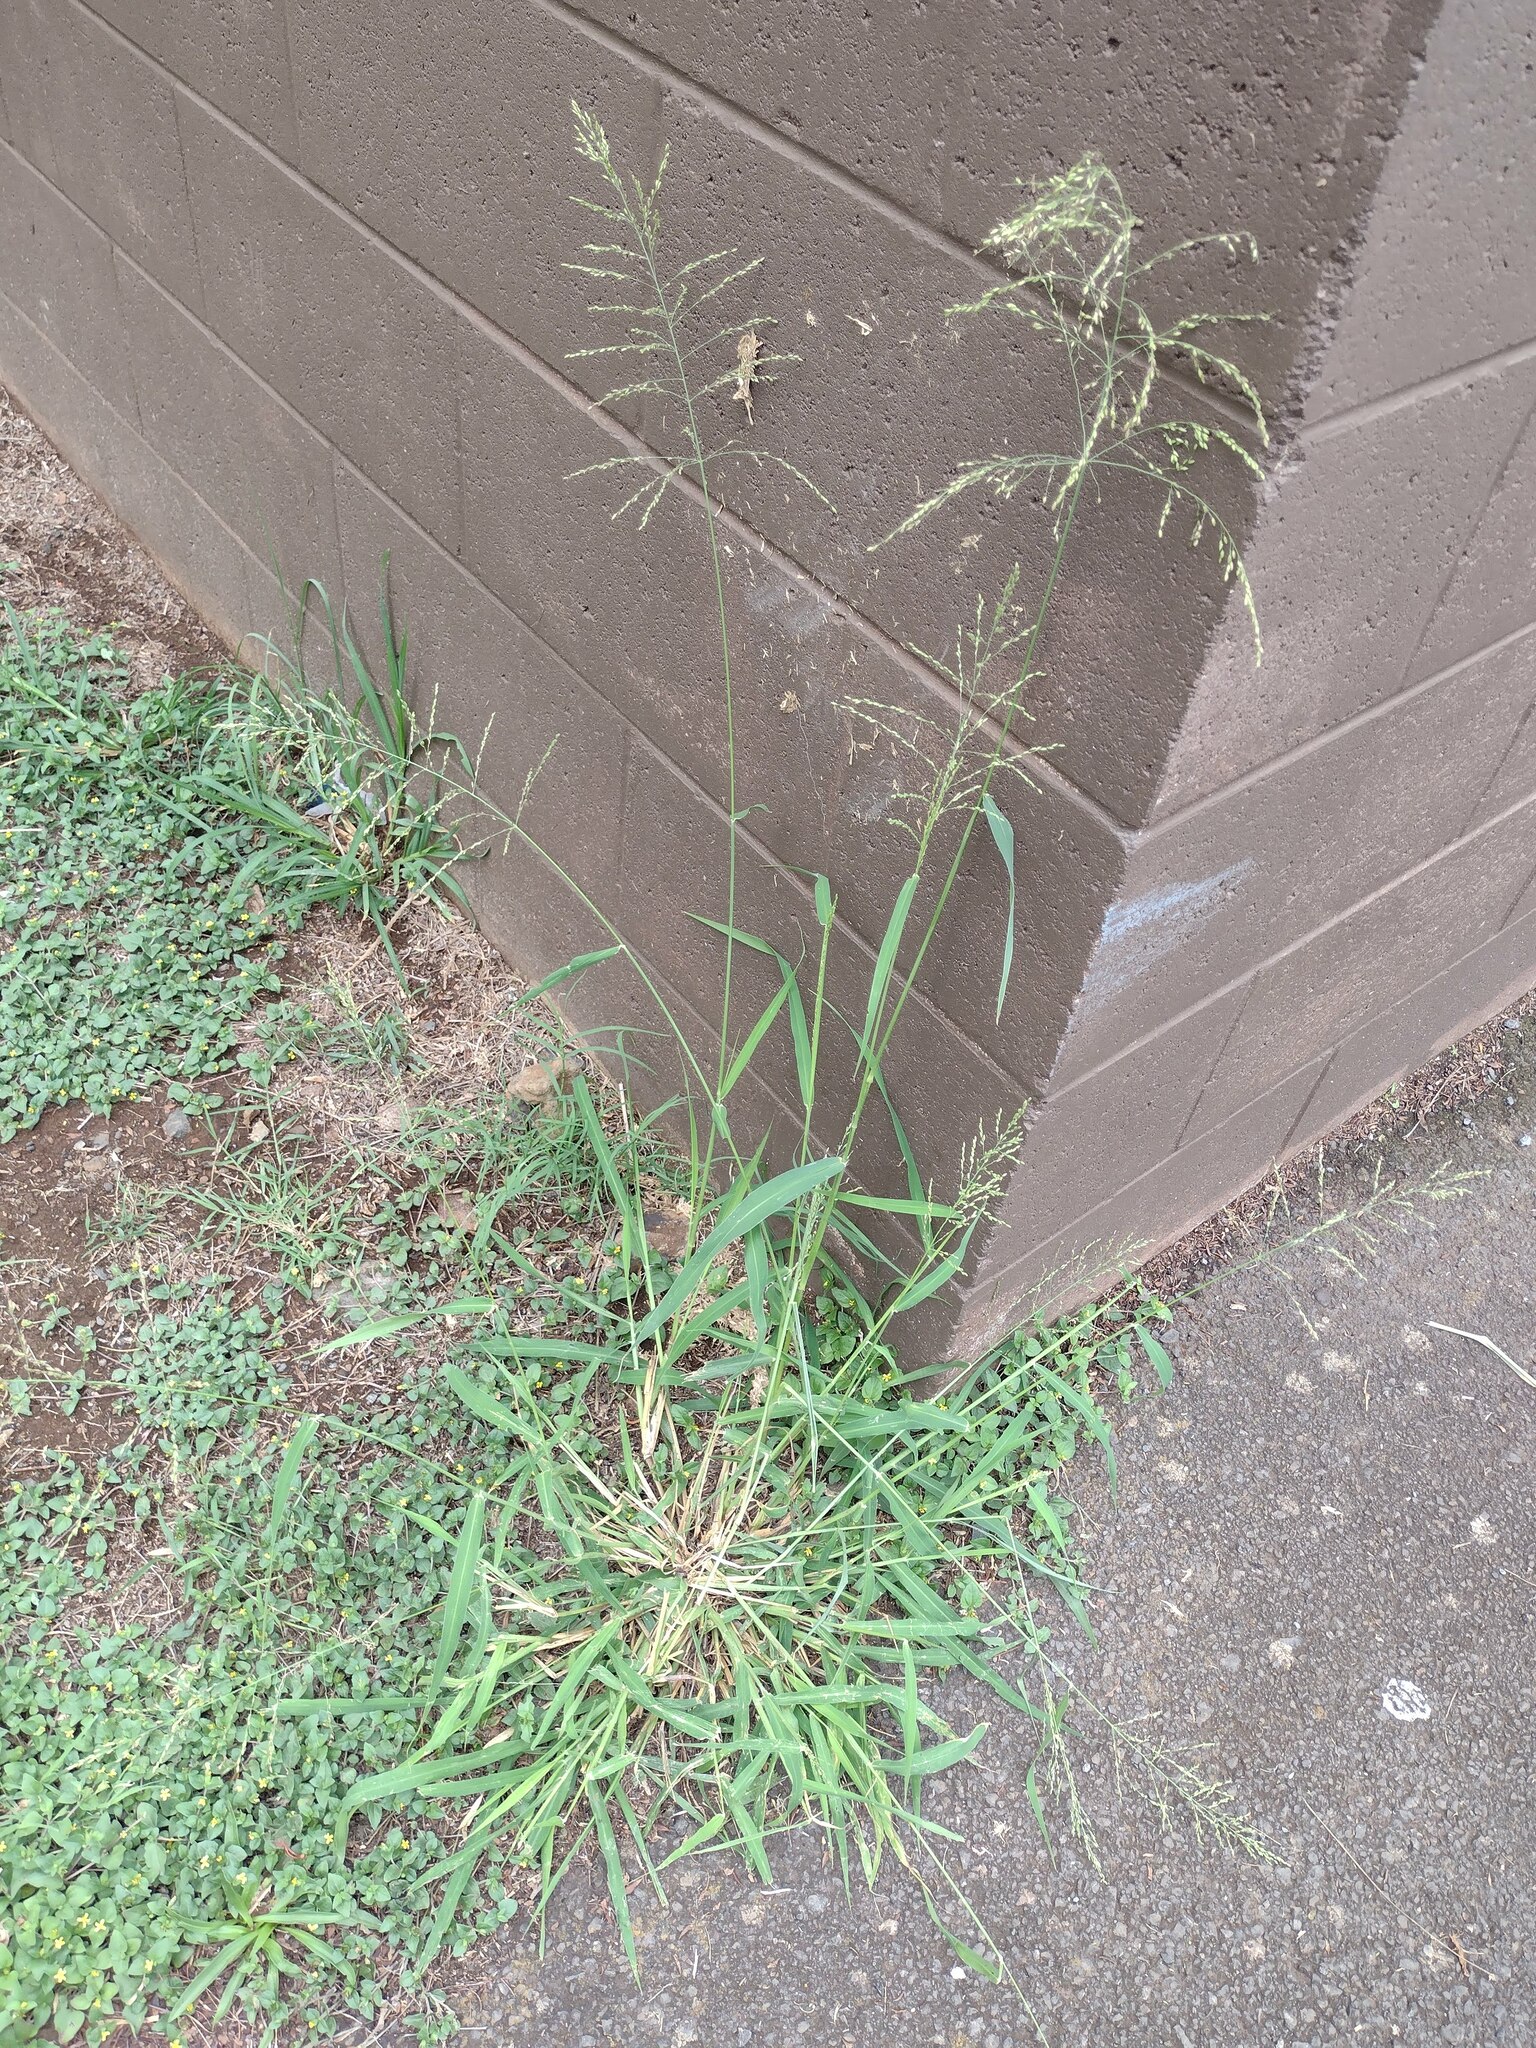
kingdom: Plantae
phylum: Tracheophyta
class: Liliopsida
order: Poales
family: Poaceae
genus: Megathyrsus
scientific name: Megathyrsus maximus
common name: Guineagrass
